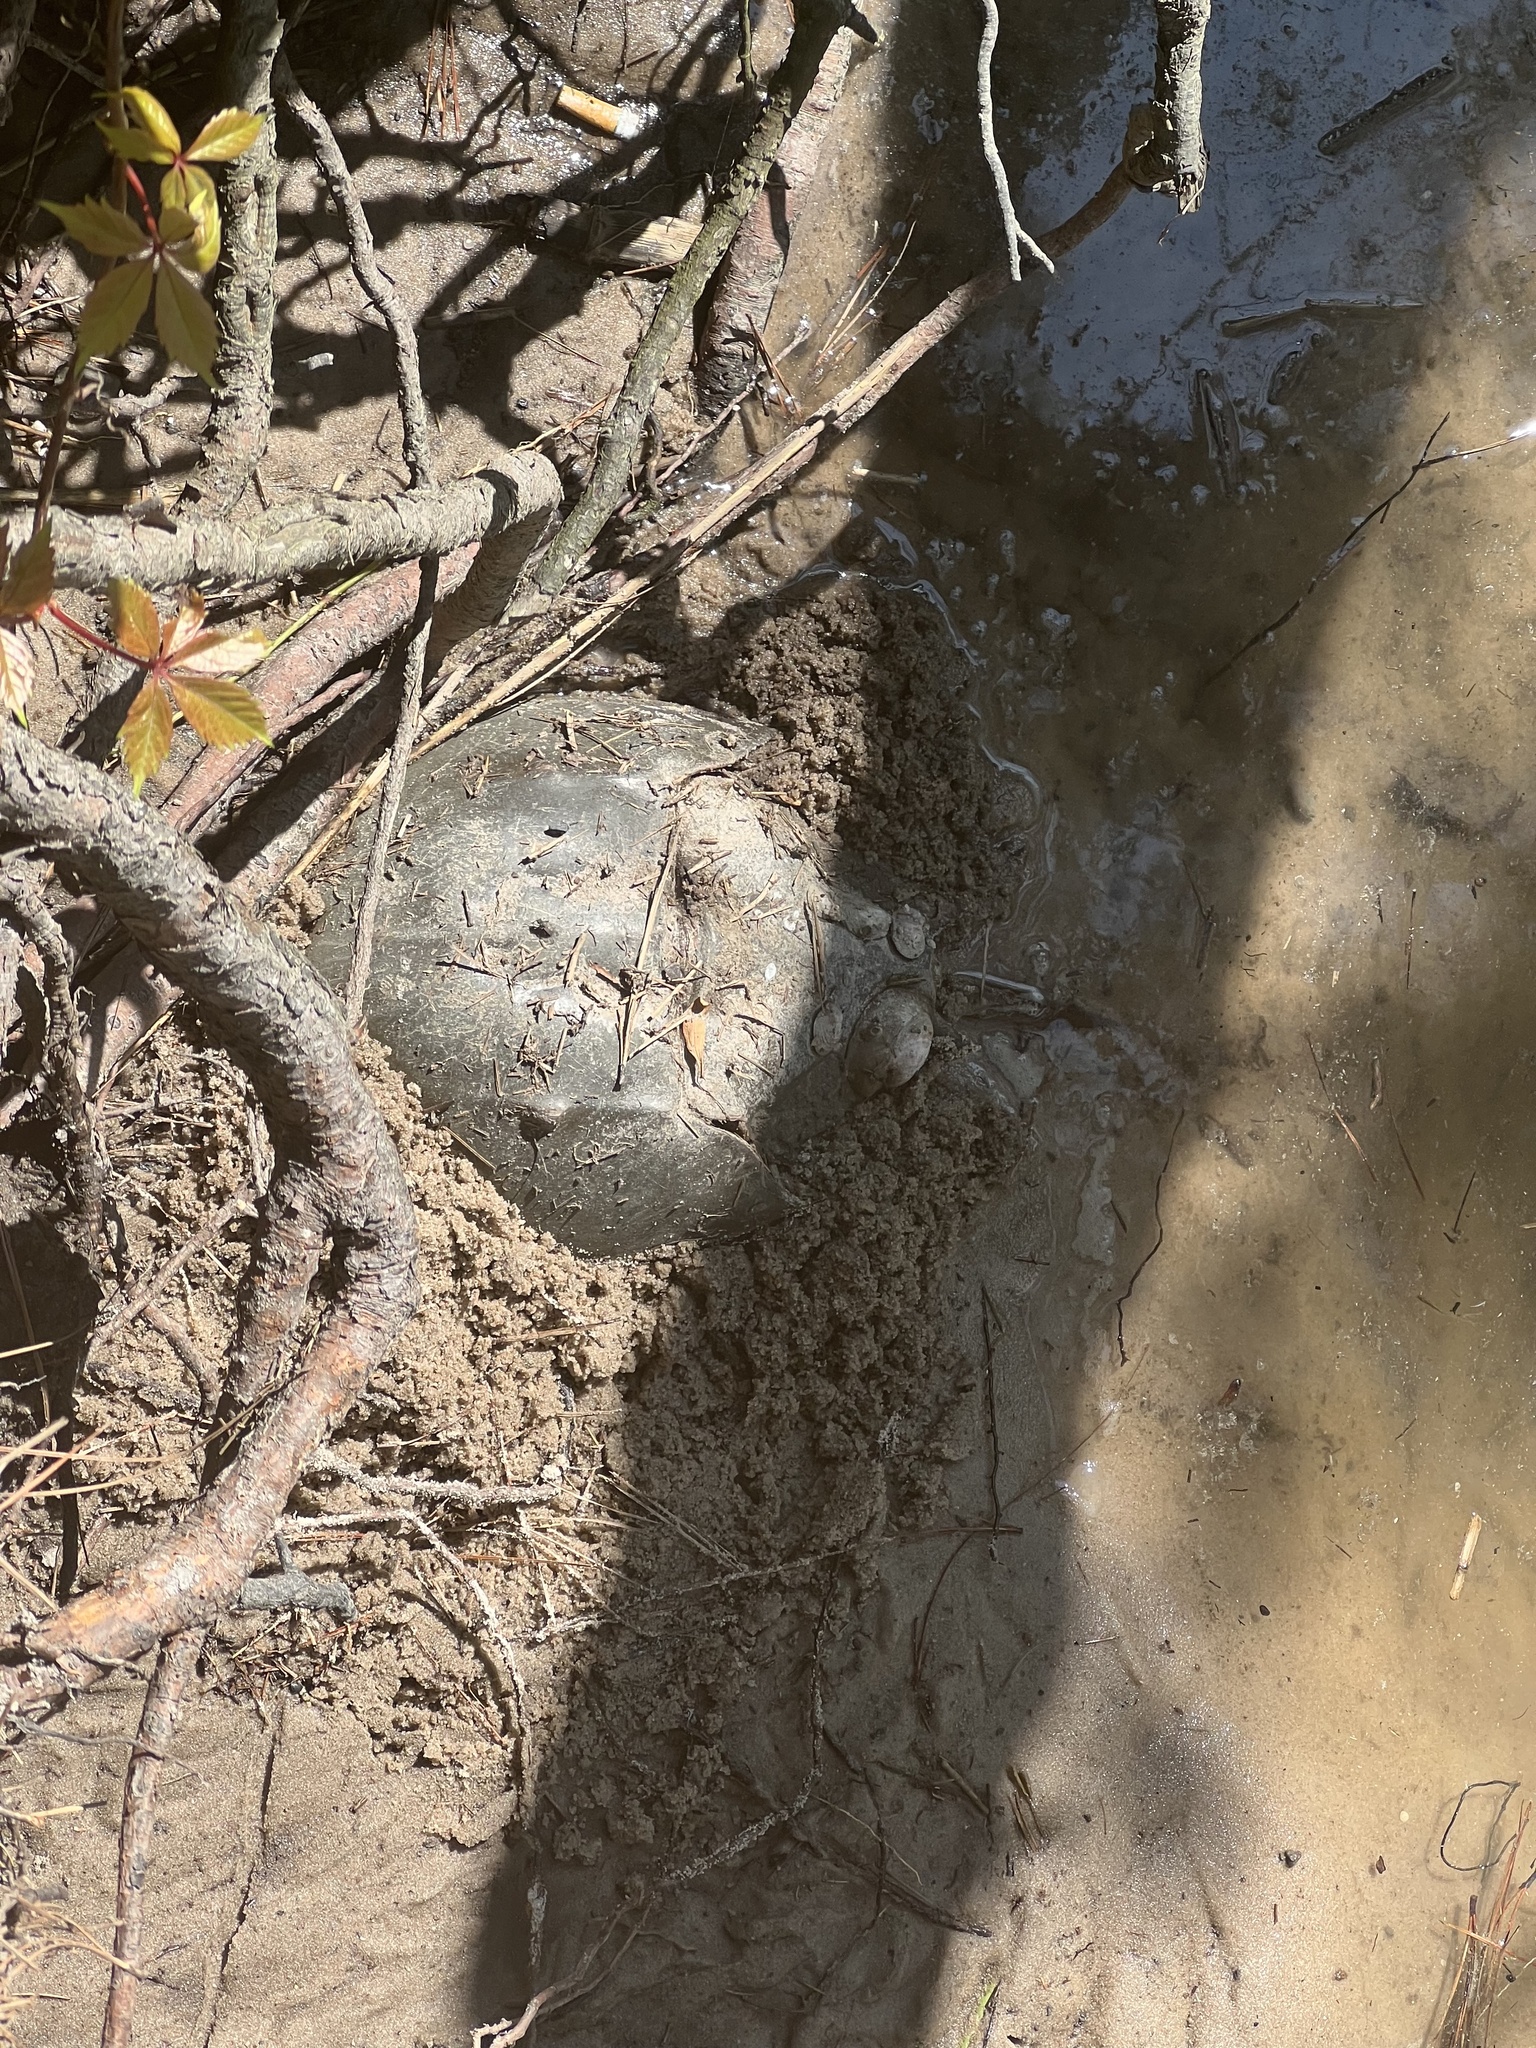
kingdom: Animalia
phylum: Arthropoda
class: Merostomata
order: Xiphosurida
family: Limulidae
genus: Limulus
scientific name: Limulus polyphemus
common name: Horseshoe crab
